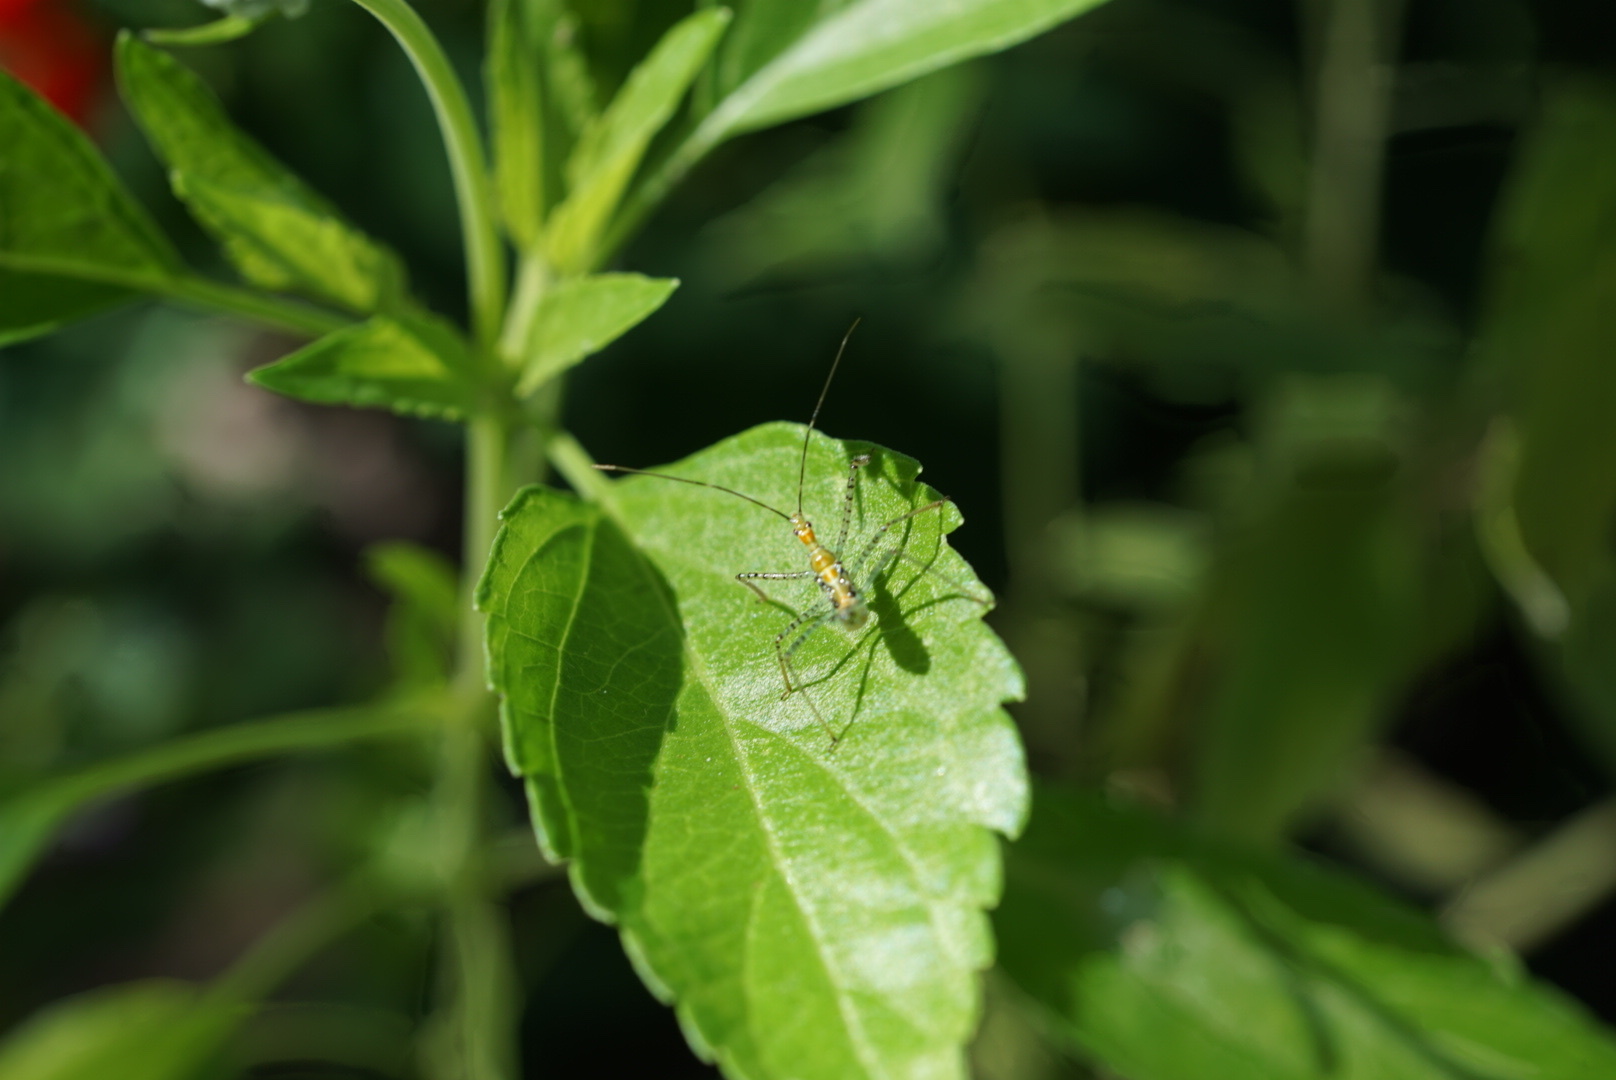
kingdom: Animalia
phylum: Arthropoda
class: Insecta
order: Hemiptera
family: Reduviidae
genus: Zelus
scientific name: Zelus renardii
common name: Assassin bug
